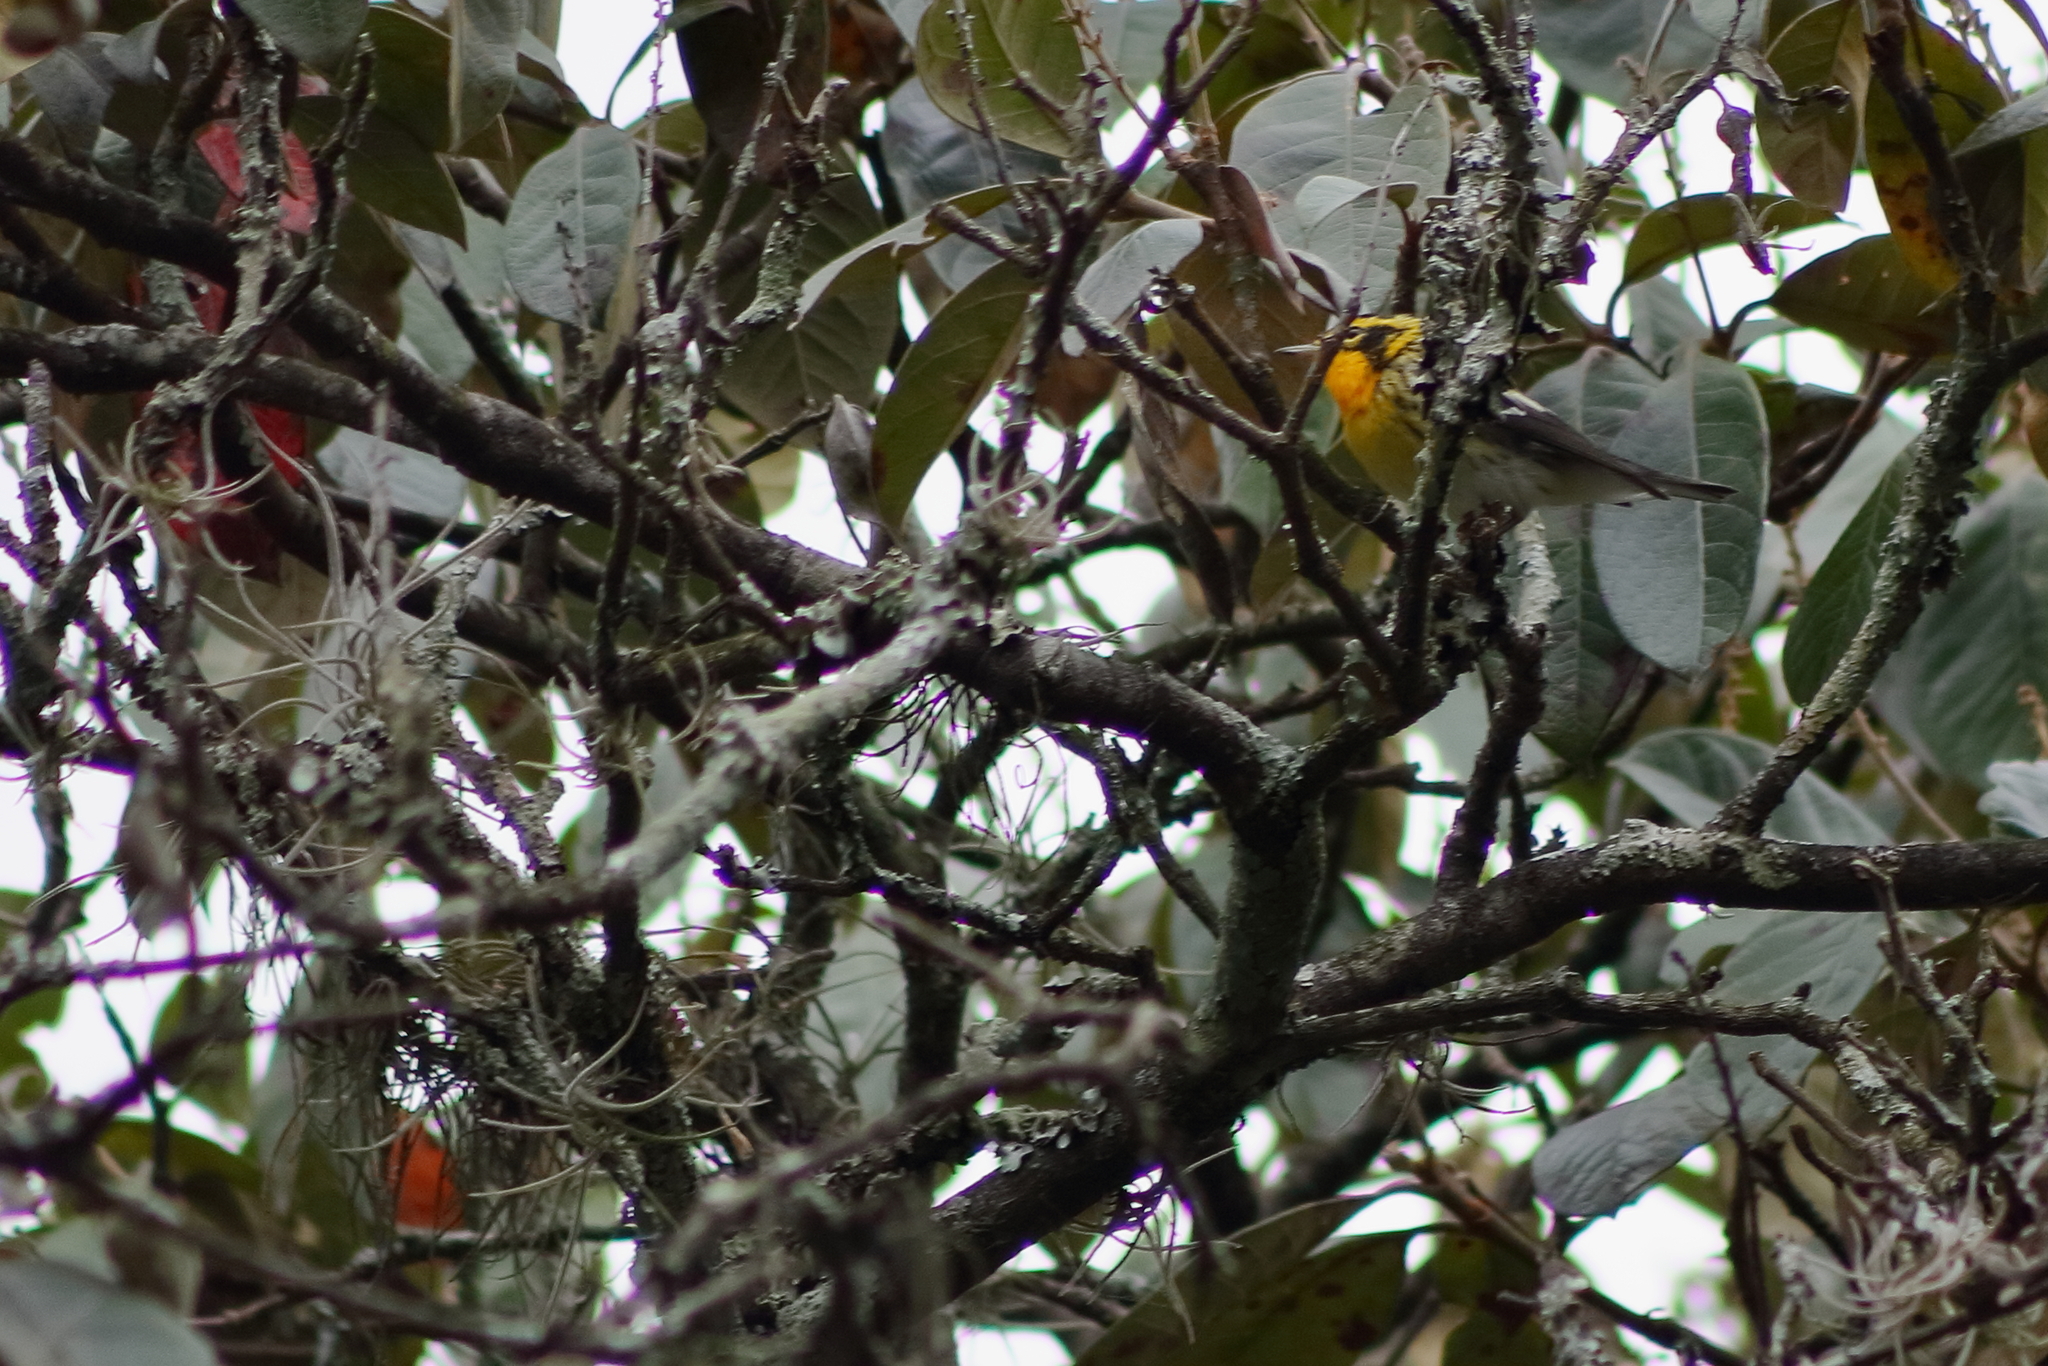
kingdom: Animalia
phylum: Chordata
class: Aves
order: Passeriformes
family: Parulidae
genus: Setophaga
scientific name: Setophaga fusca
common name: Blackburnian warbler
